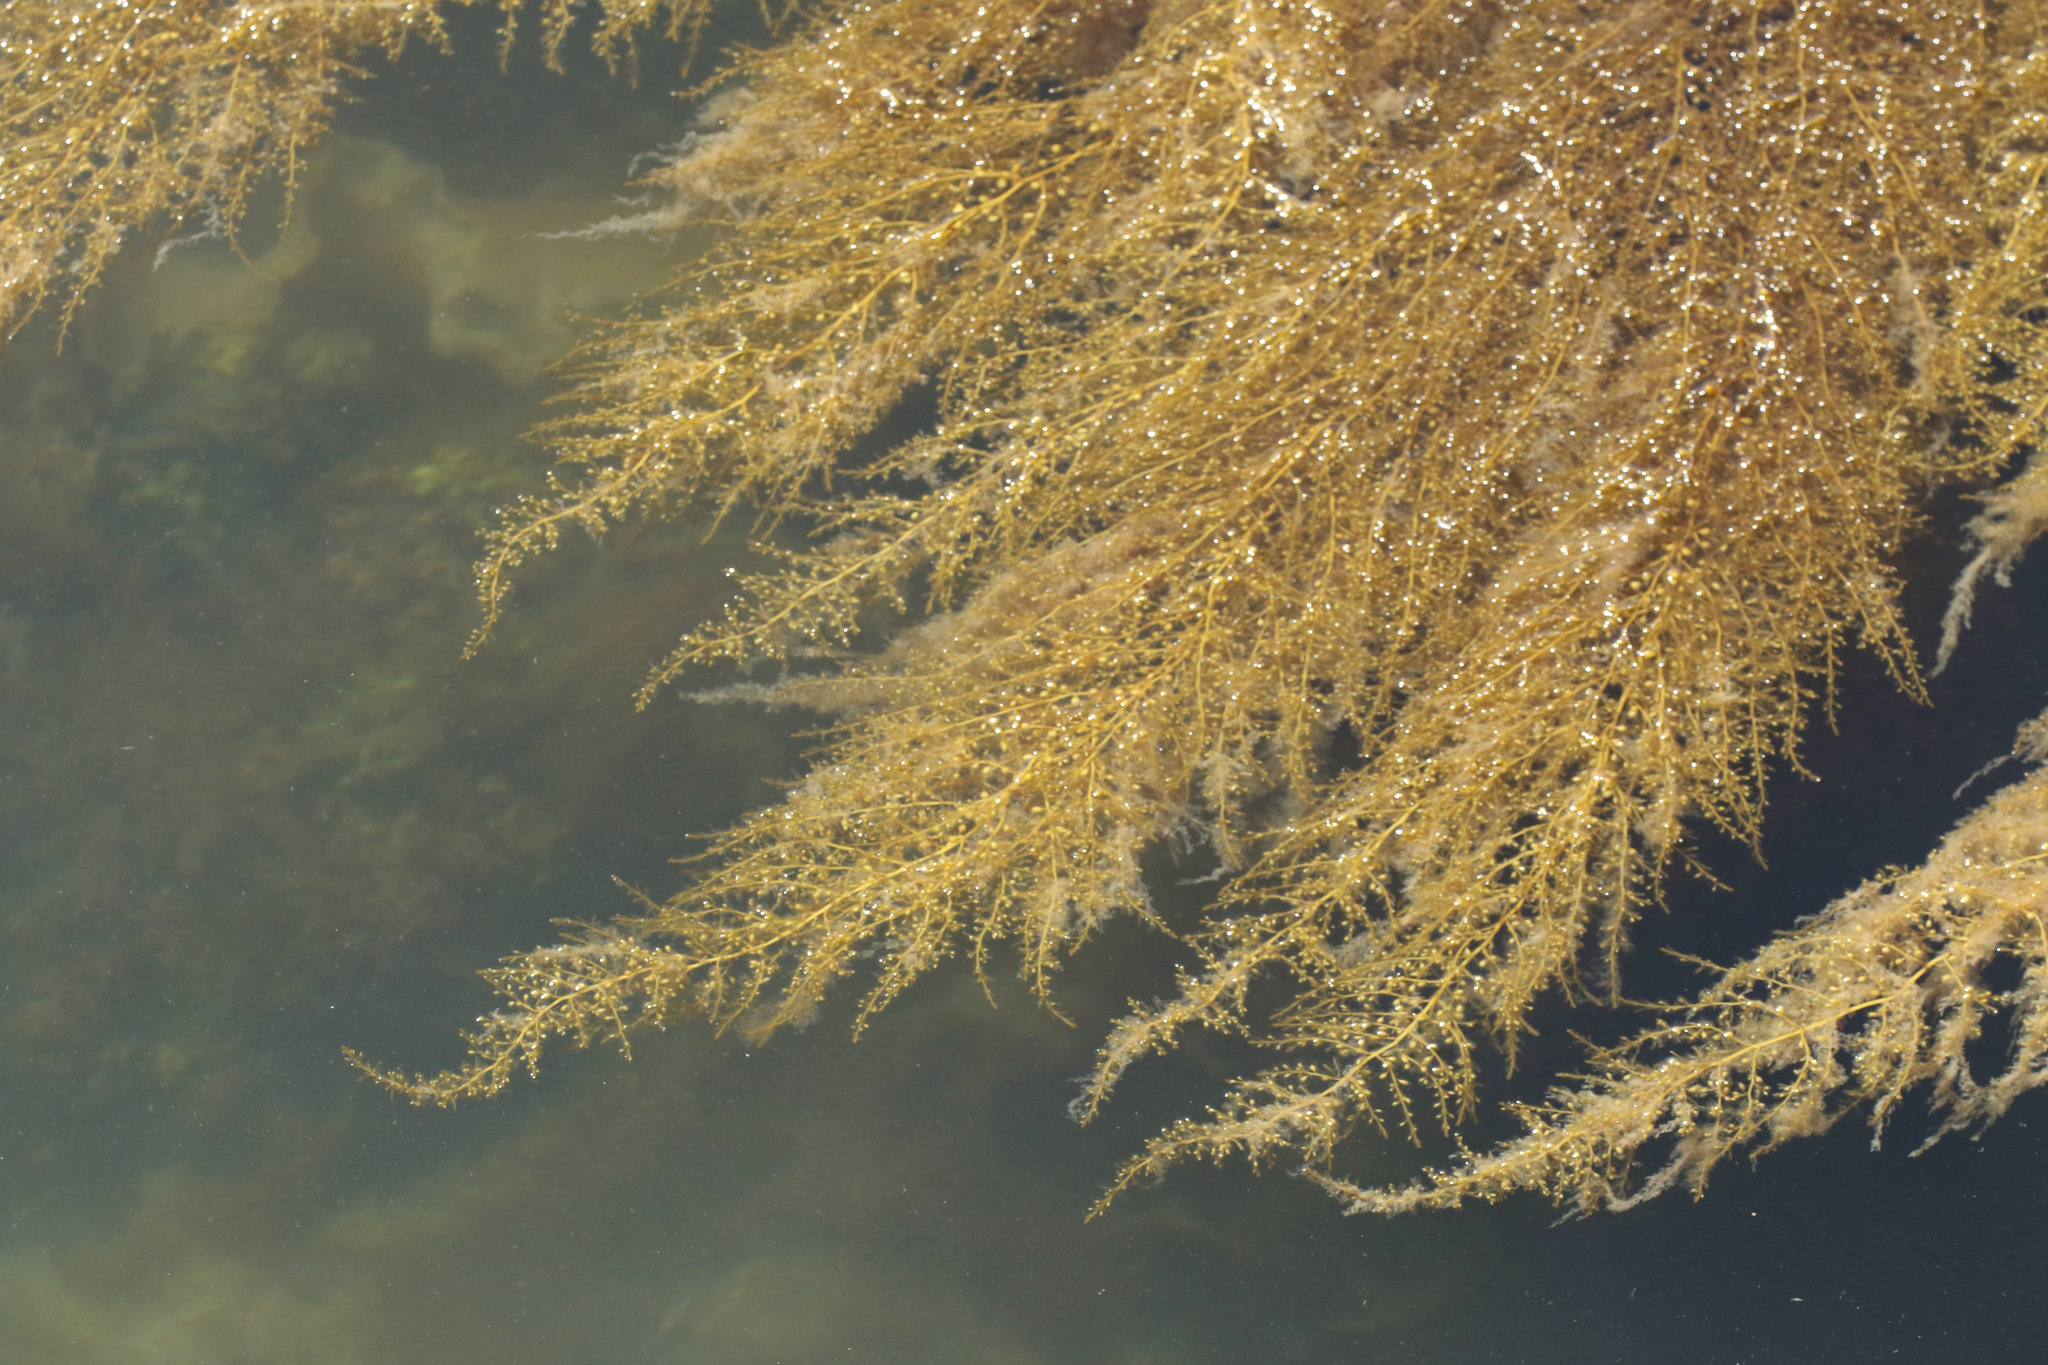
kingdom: Chromista
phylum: Ochrophyta
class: Phaeophyceae
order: Fucales
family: Sargassaceae
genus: Sargassum
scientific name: Sargassum muticum
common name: Japweed
